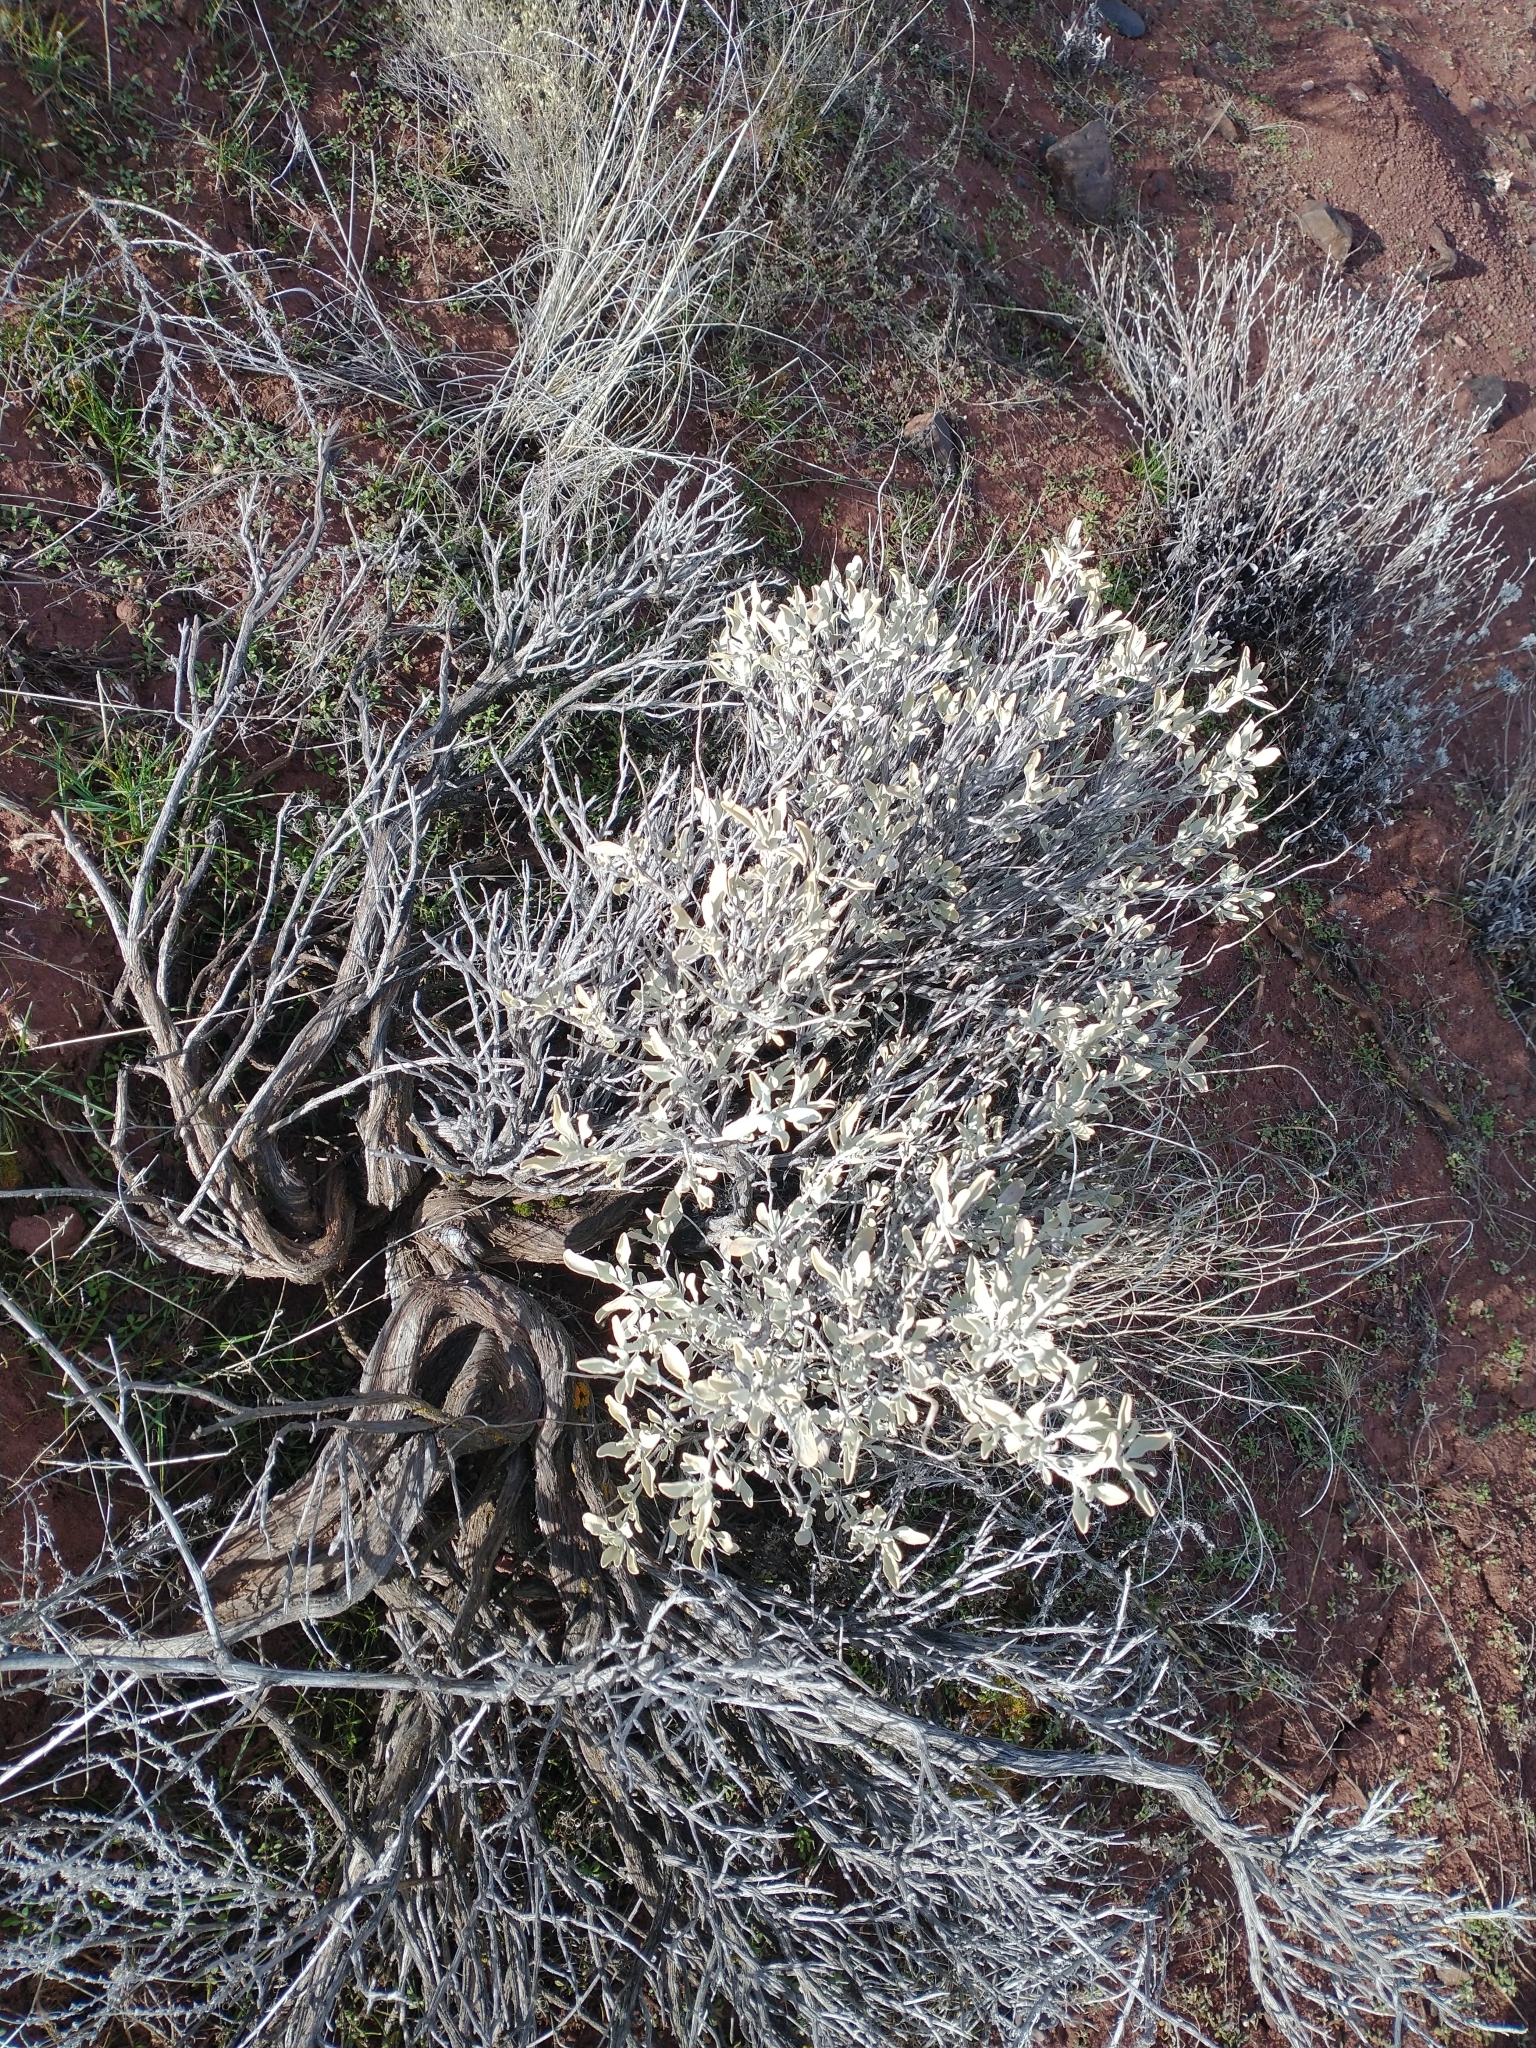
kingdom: Plantae
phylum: Tracheophyta
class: Magnoliopsida
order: Lamiales
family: Lamiaceae
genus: Salvia
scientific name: Salvia dorrii
